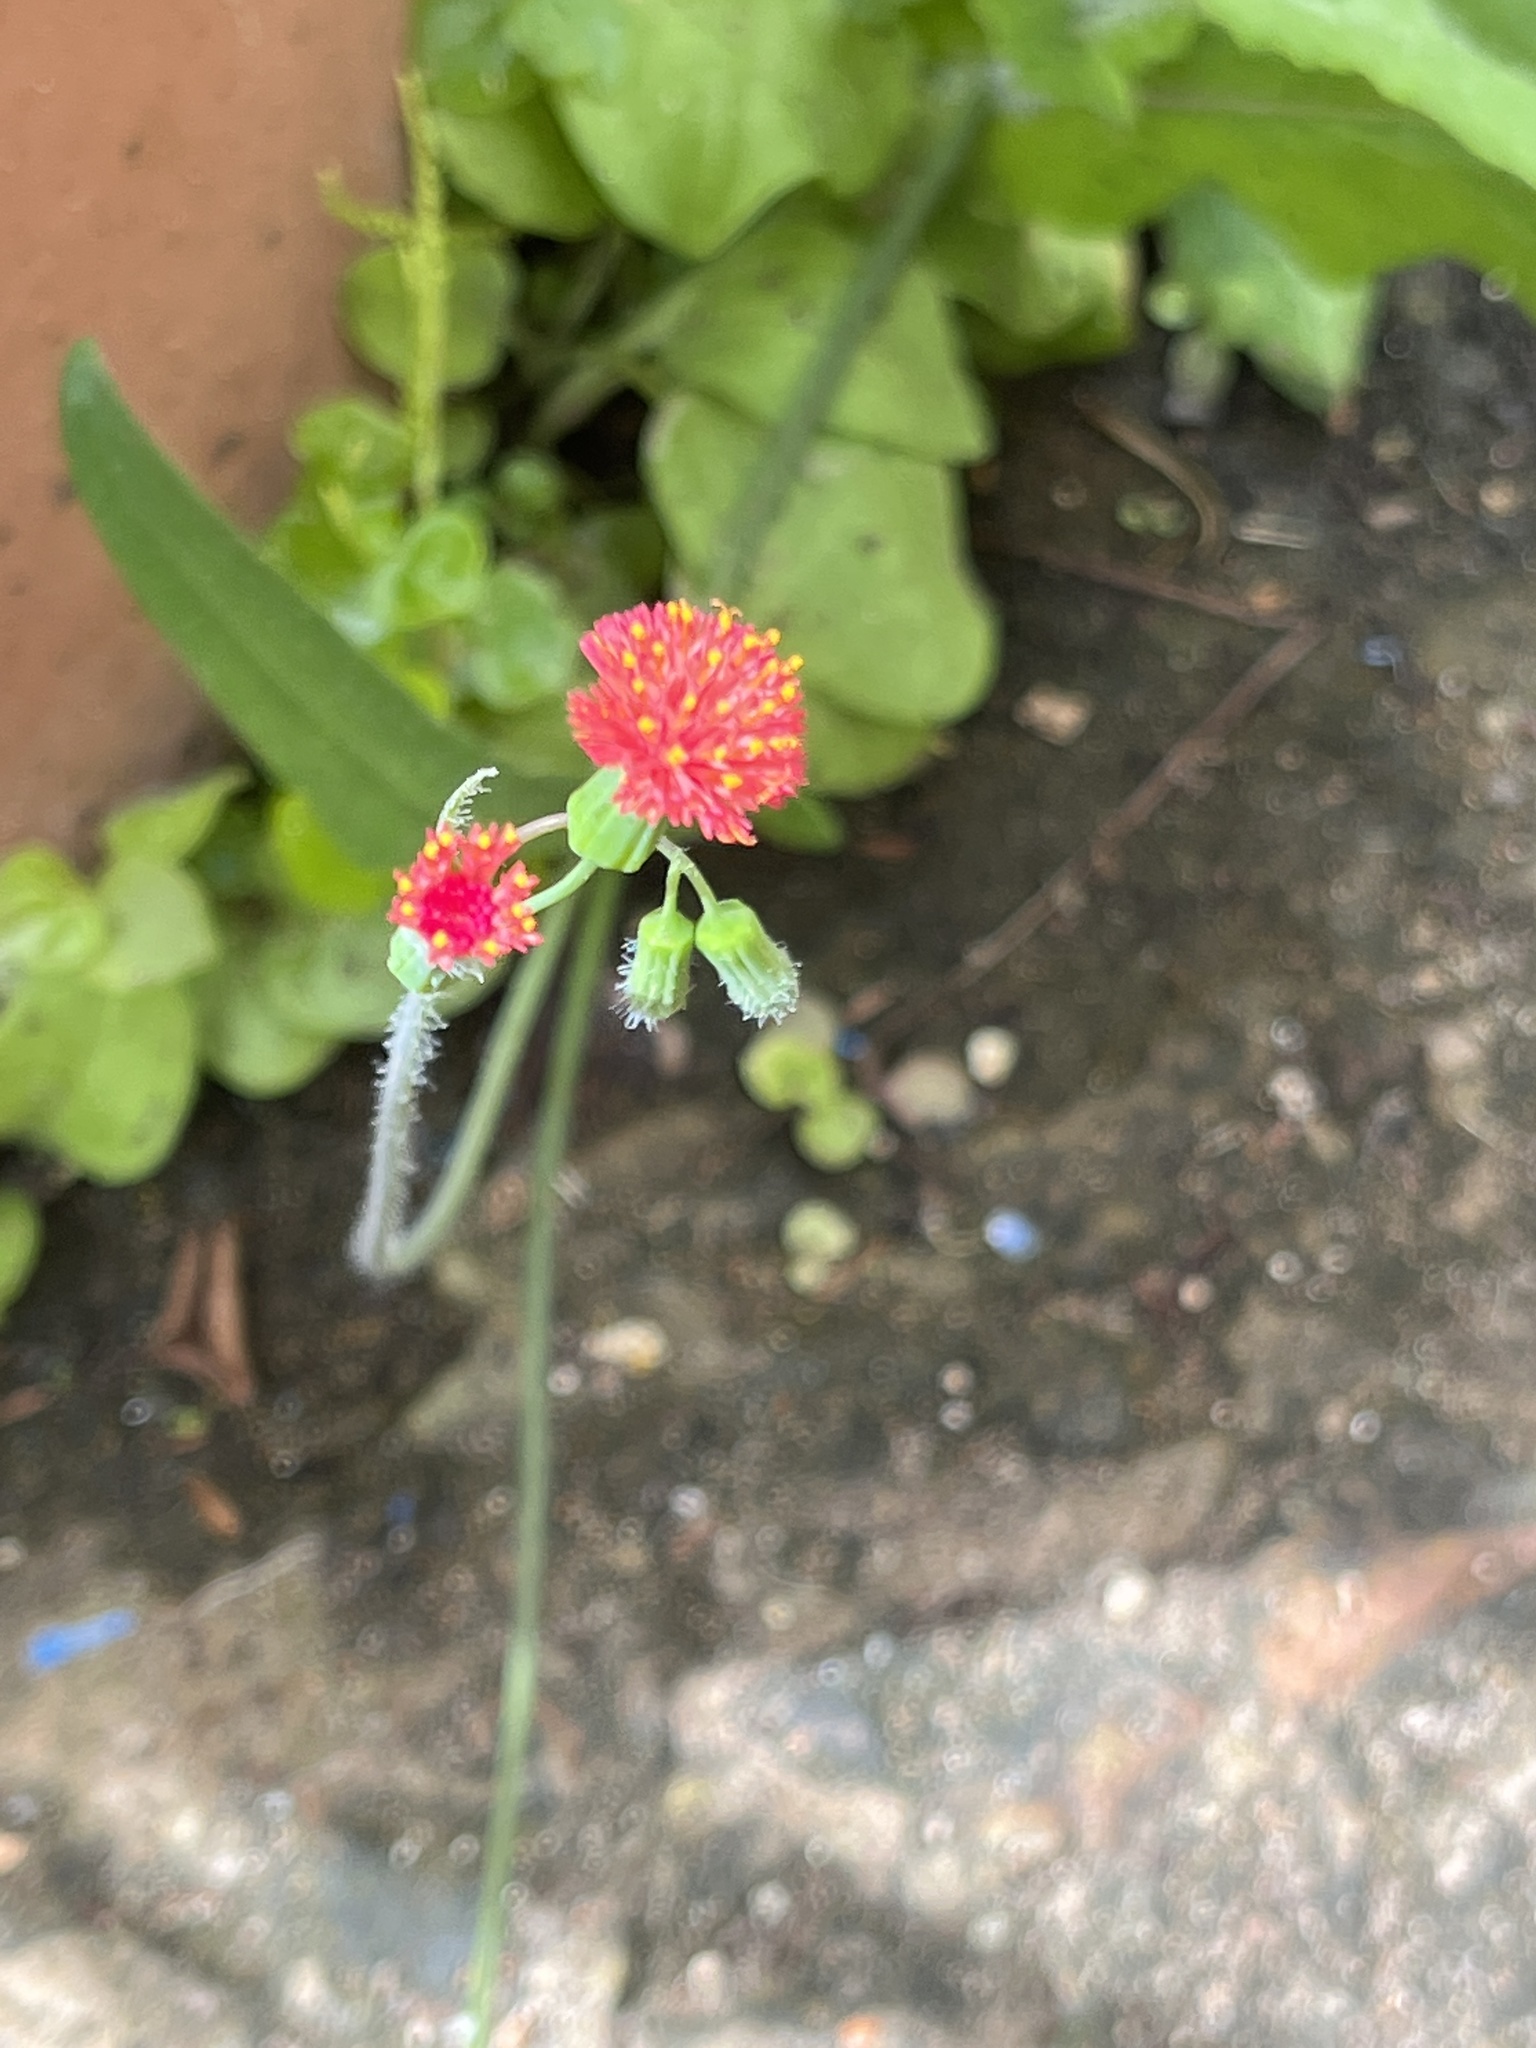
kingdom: Plantae
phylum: Tracheophyta
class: Magnoliopsida
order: Asterales
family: Asteraceae
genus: Emilia
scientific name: Emilia fosbergii
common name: Florida tasselflower
